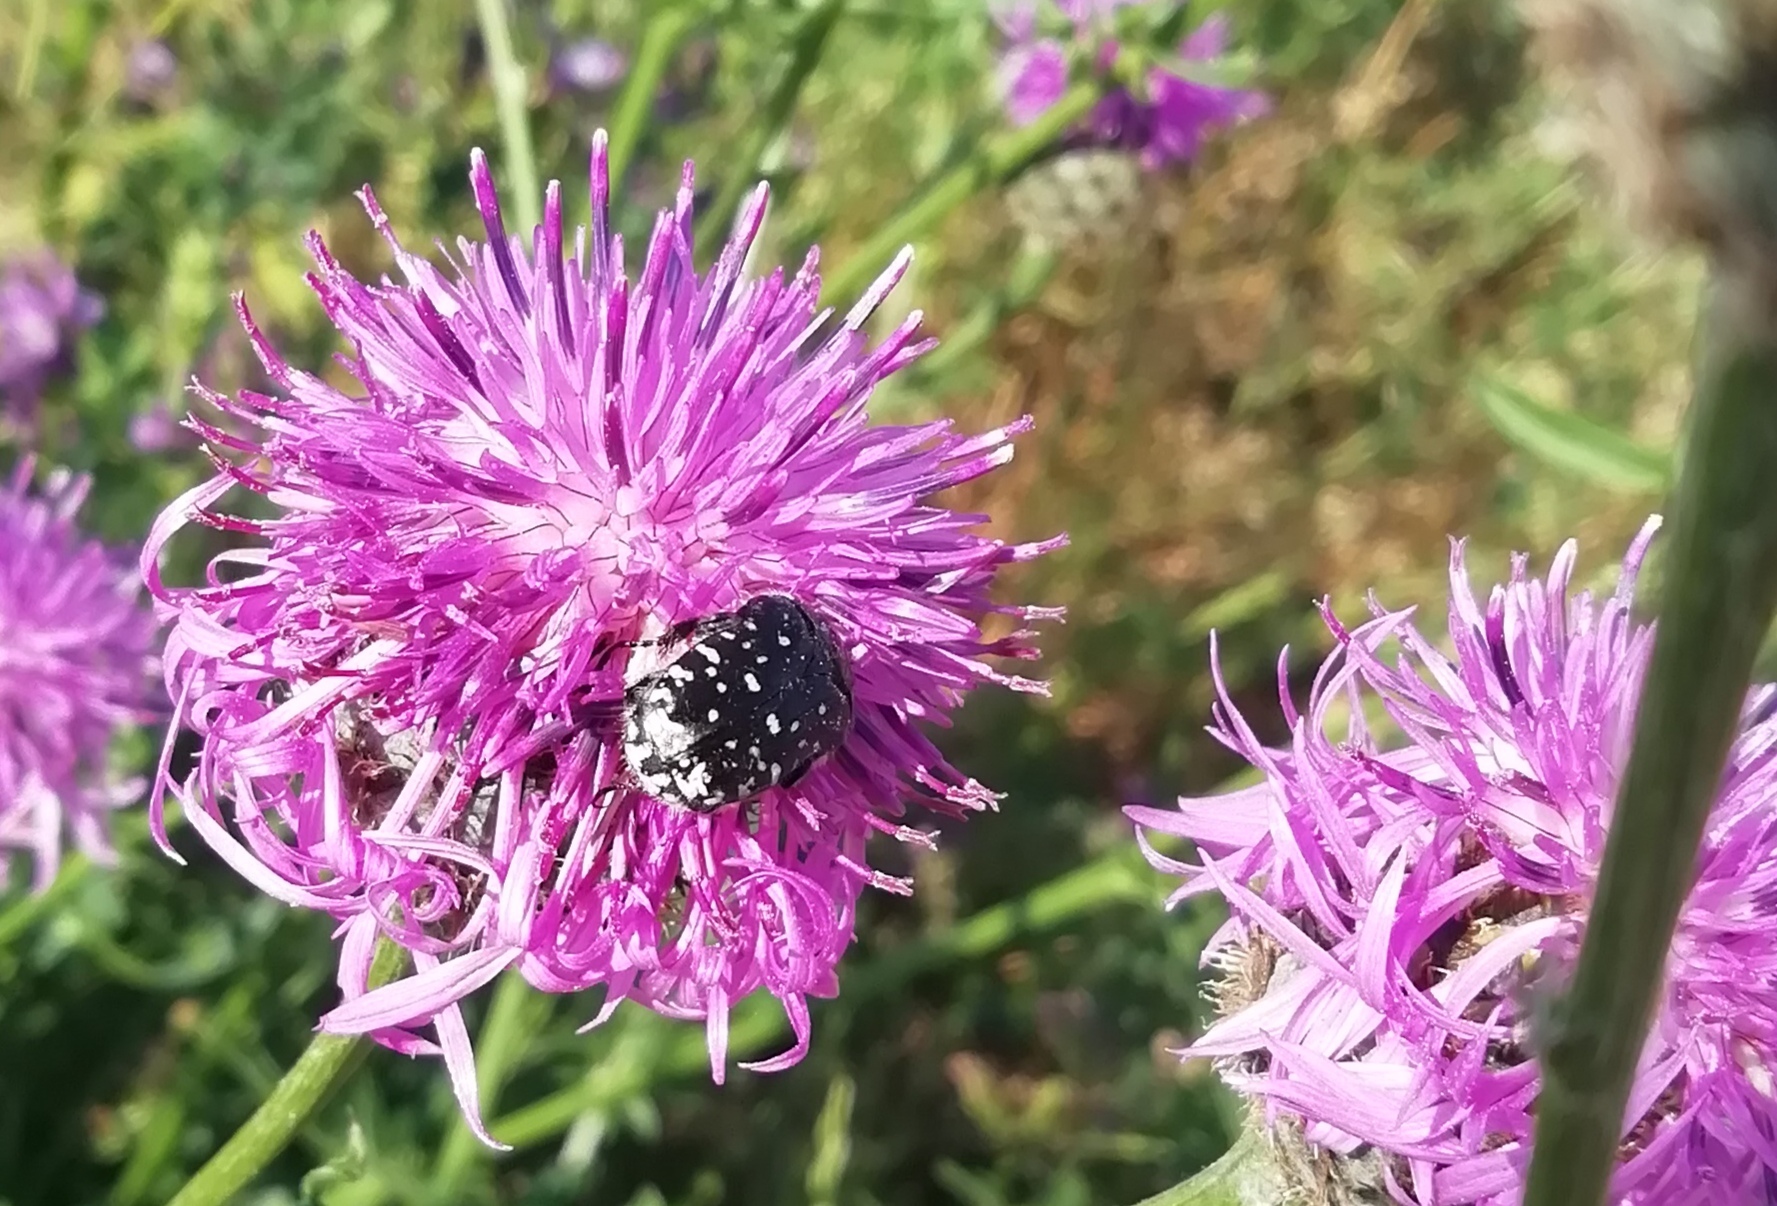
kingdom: Animalia
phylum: Arthropoda
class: Insecta
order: Coleoptera
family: Scarabaeidae
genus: Oxythyrea
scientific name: Oxythyrea funesta
